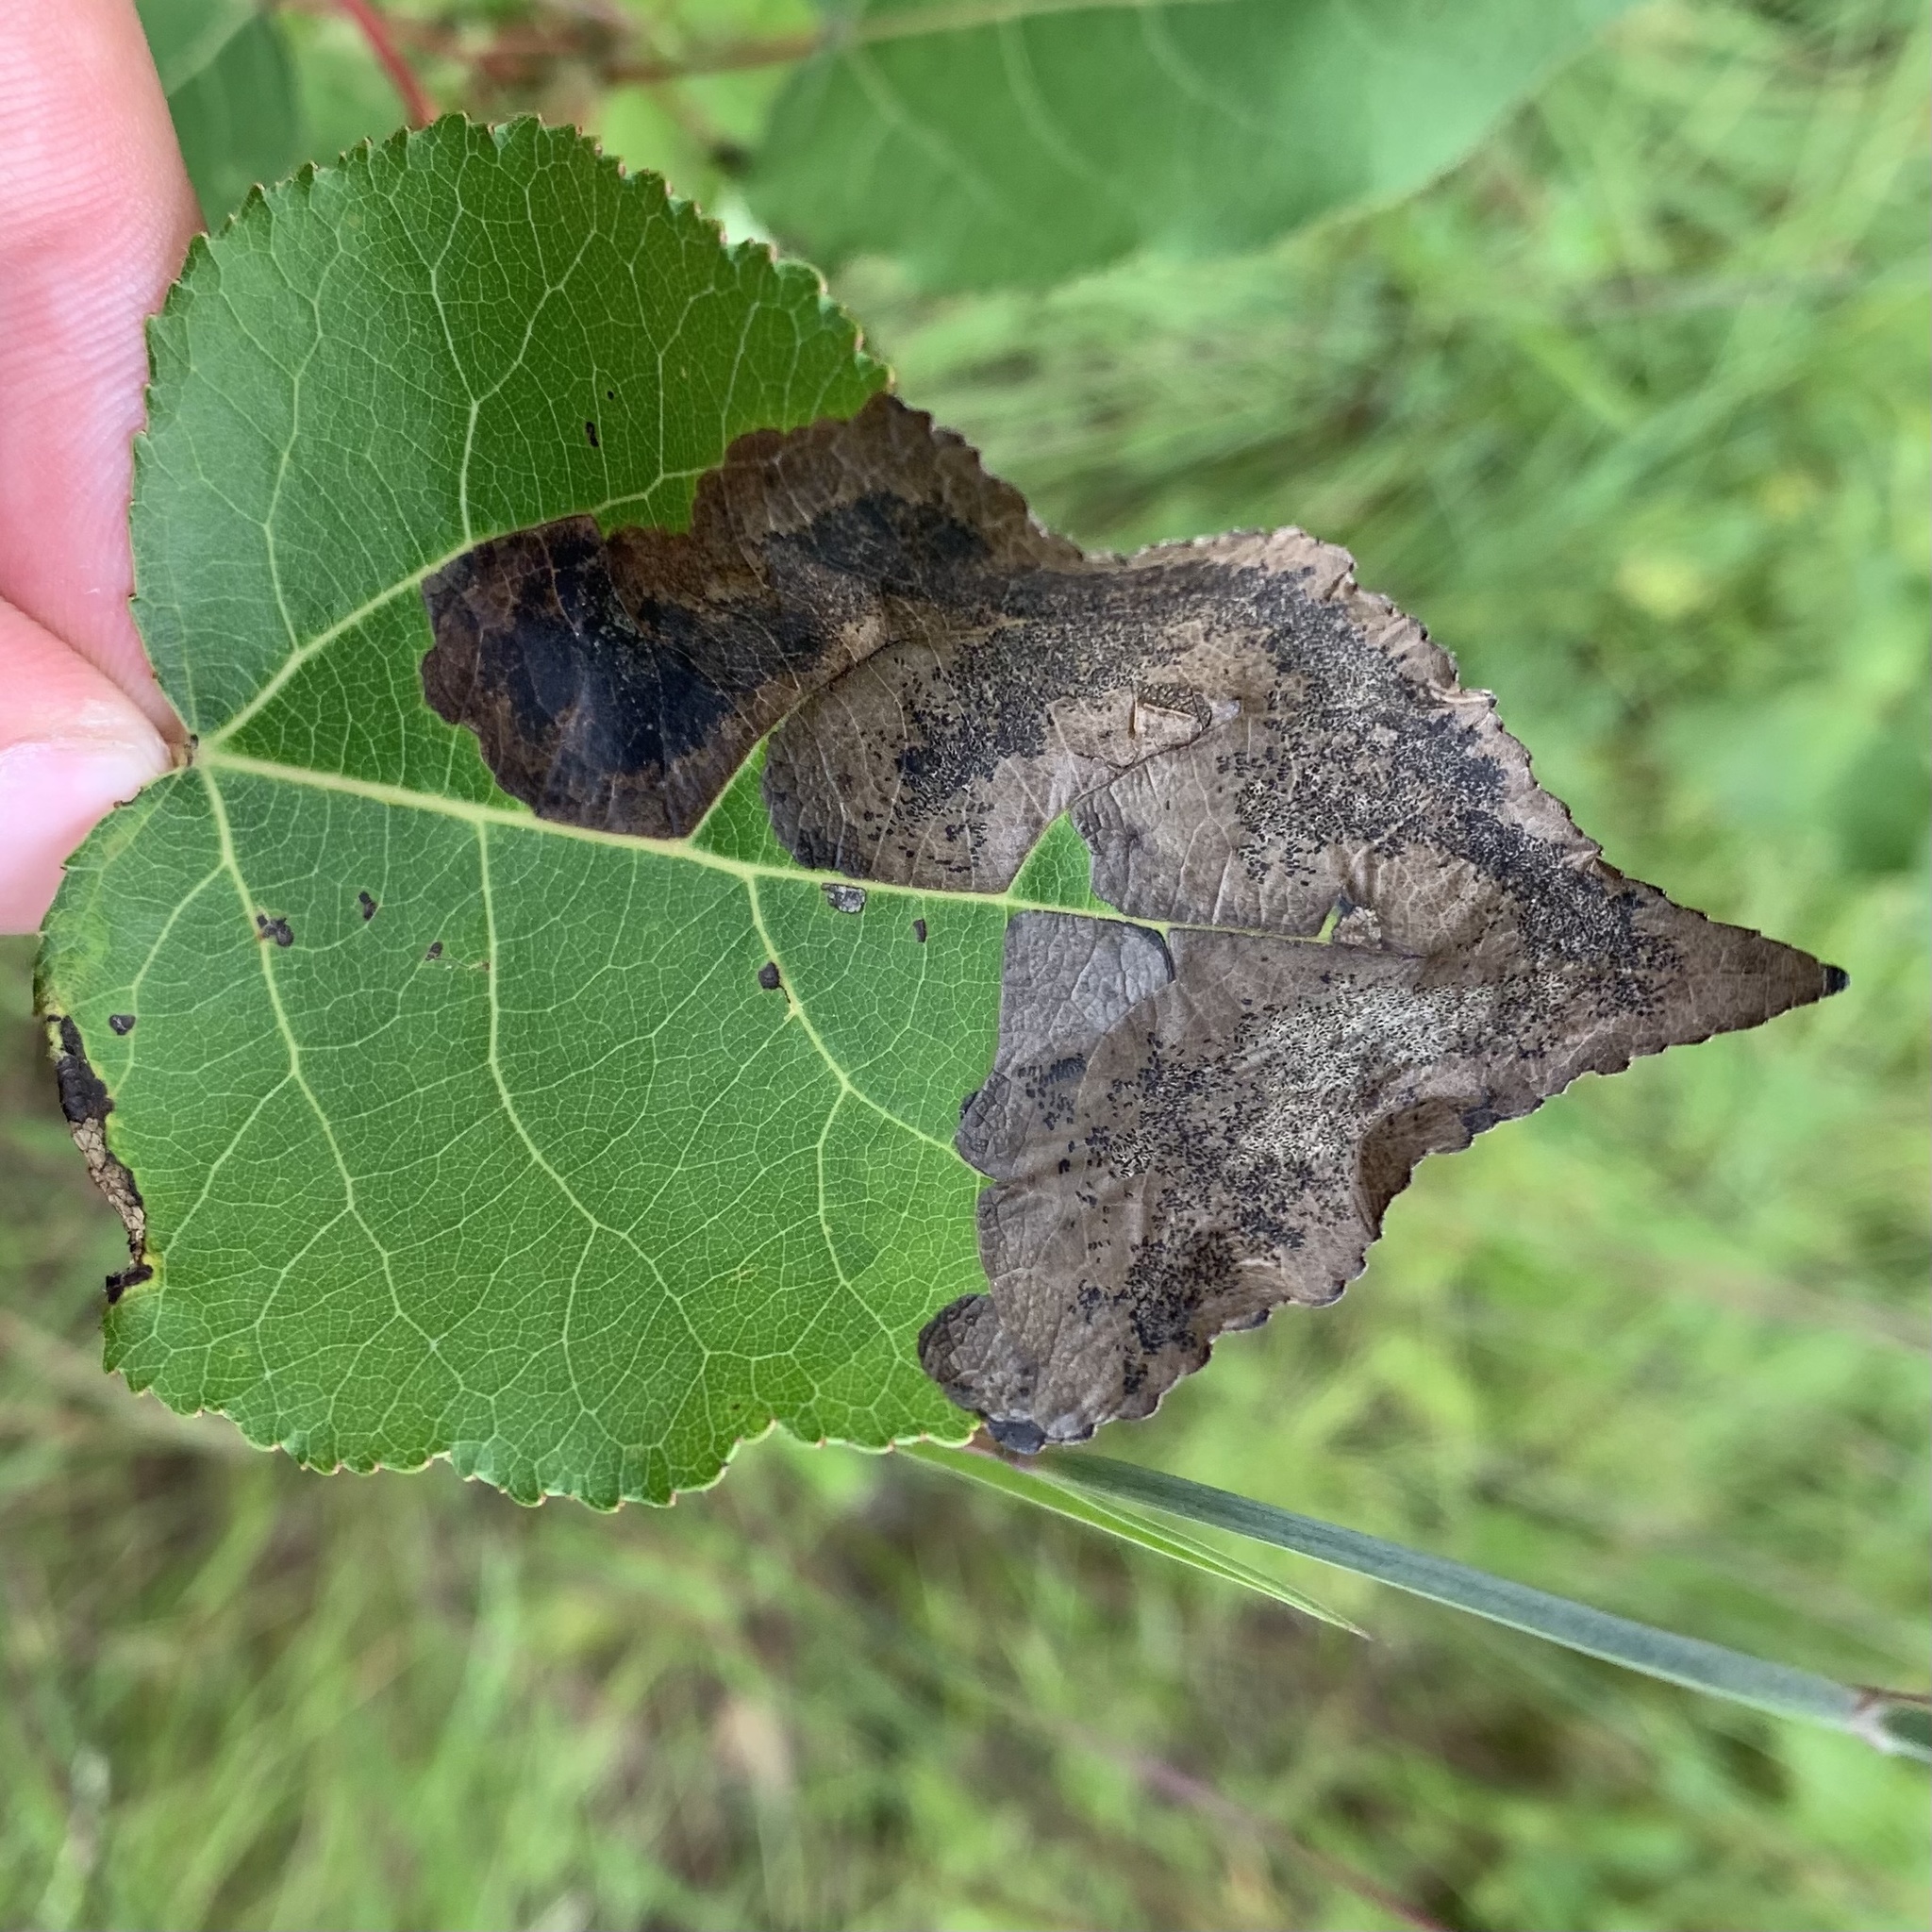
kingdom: Animalia
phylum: Arthropoda
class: Insecta
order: Lepidoptera
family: Lyonetiidae
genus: Leucoptera
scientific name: Leucoptera Paraleucoptera albella
